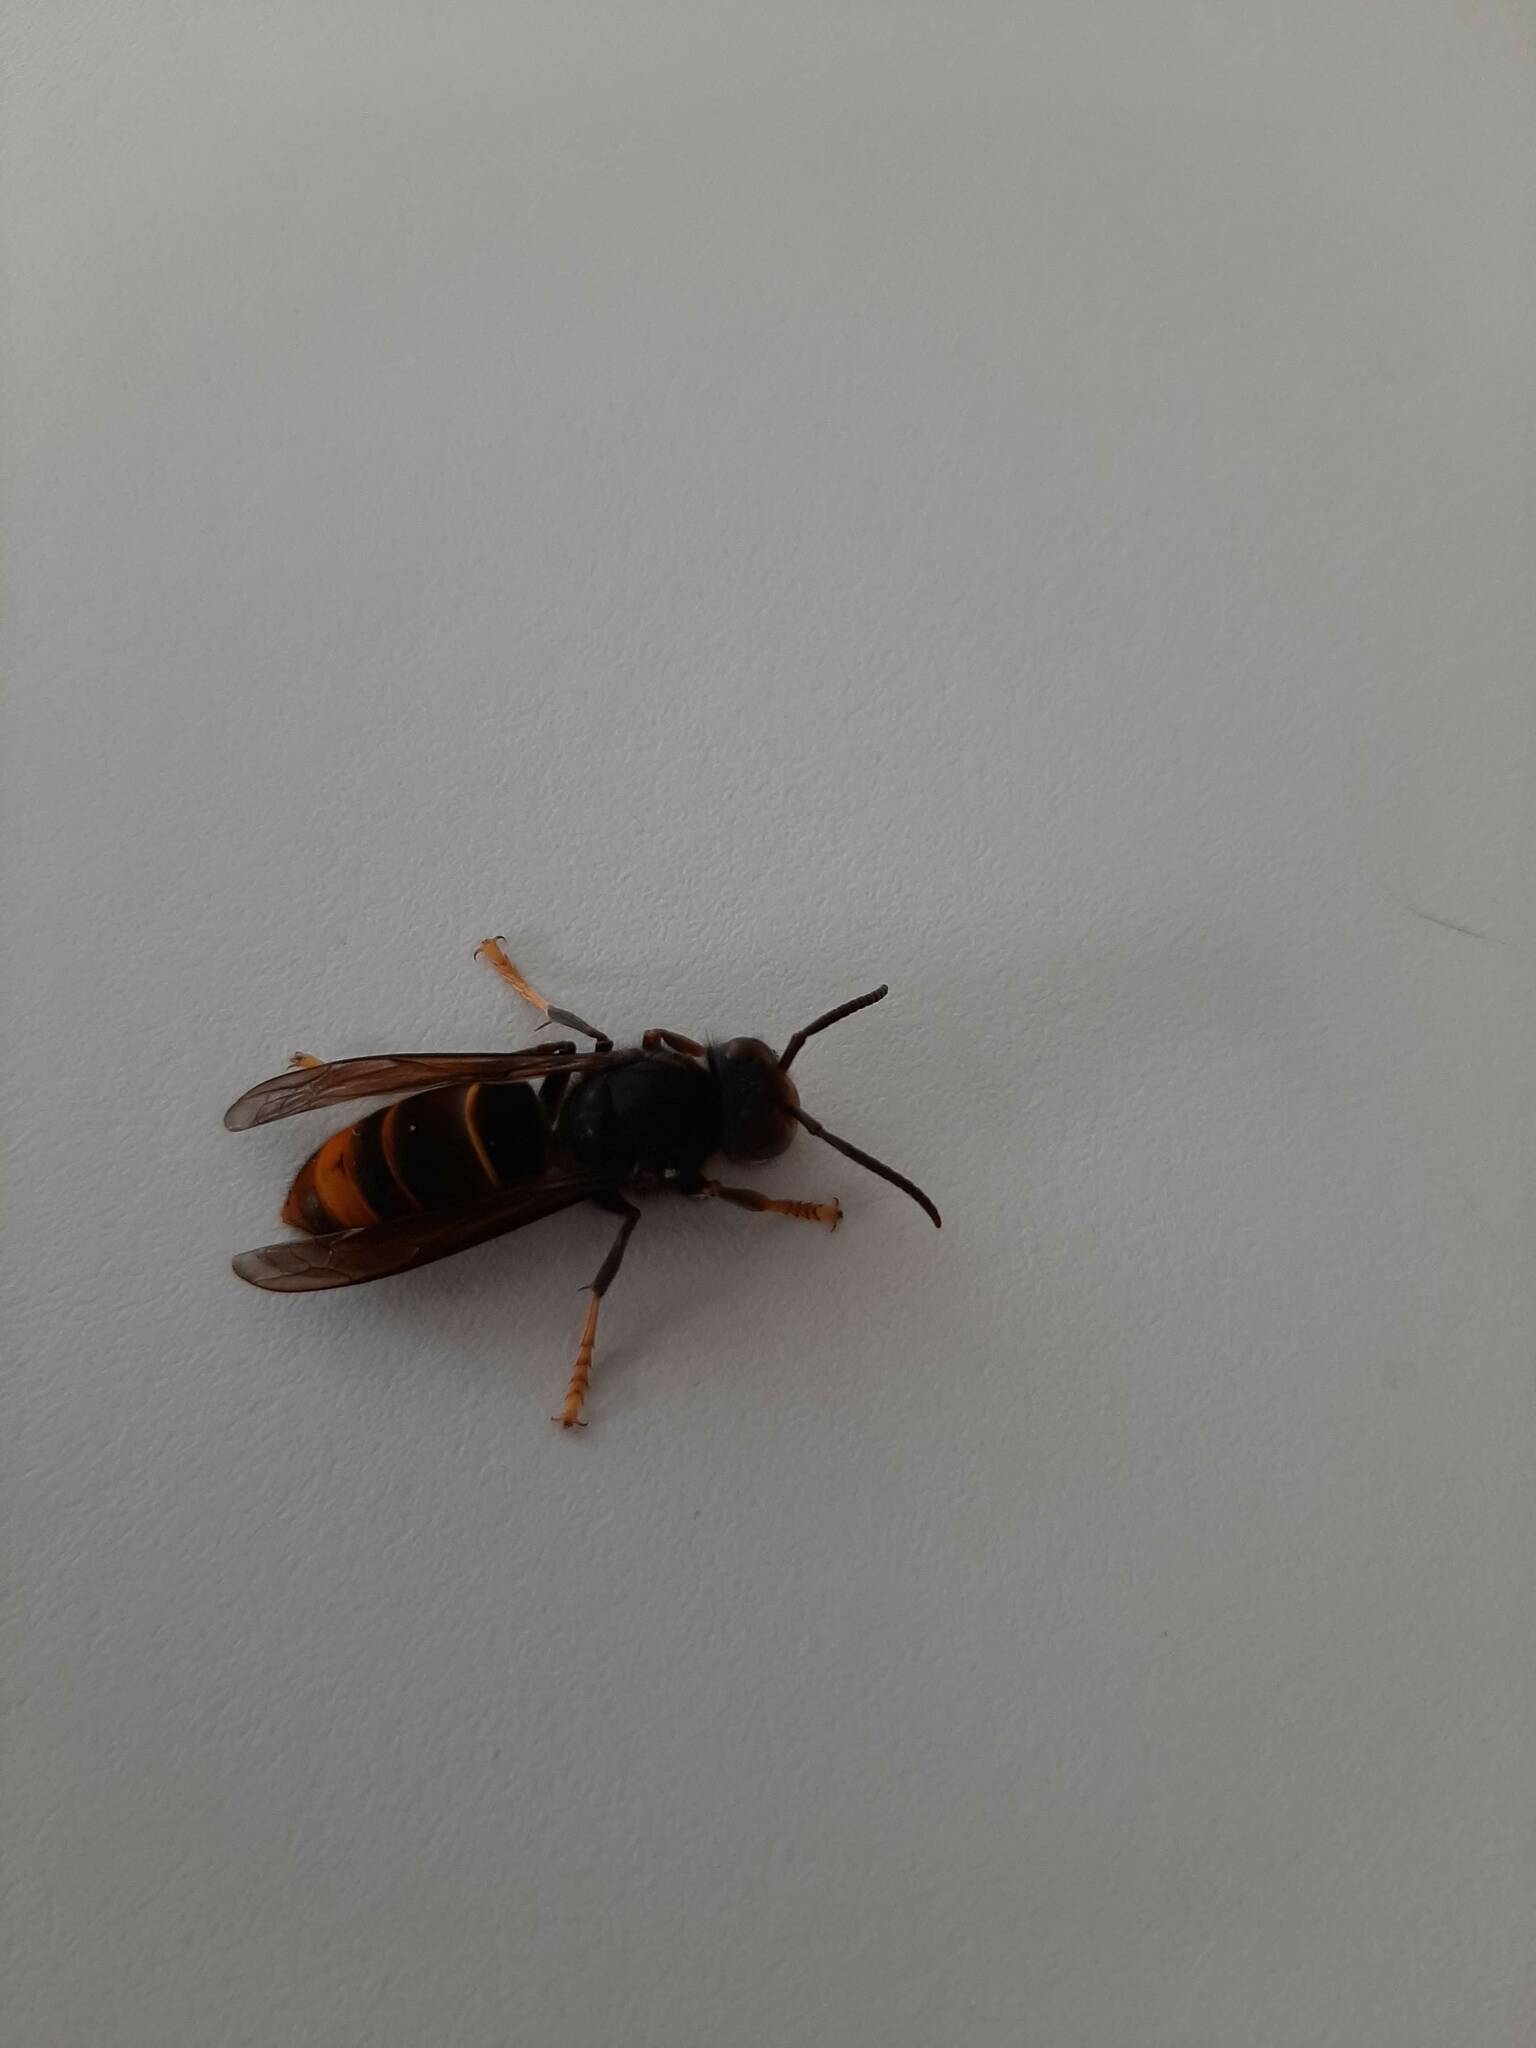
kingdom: Animalia
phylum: Arthropoda
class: Insecta
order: Hymenoptera
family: Vespidae
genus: Vespa
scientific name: Vespa velutina
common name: Asian hornet
